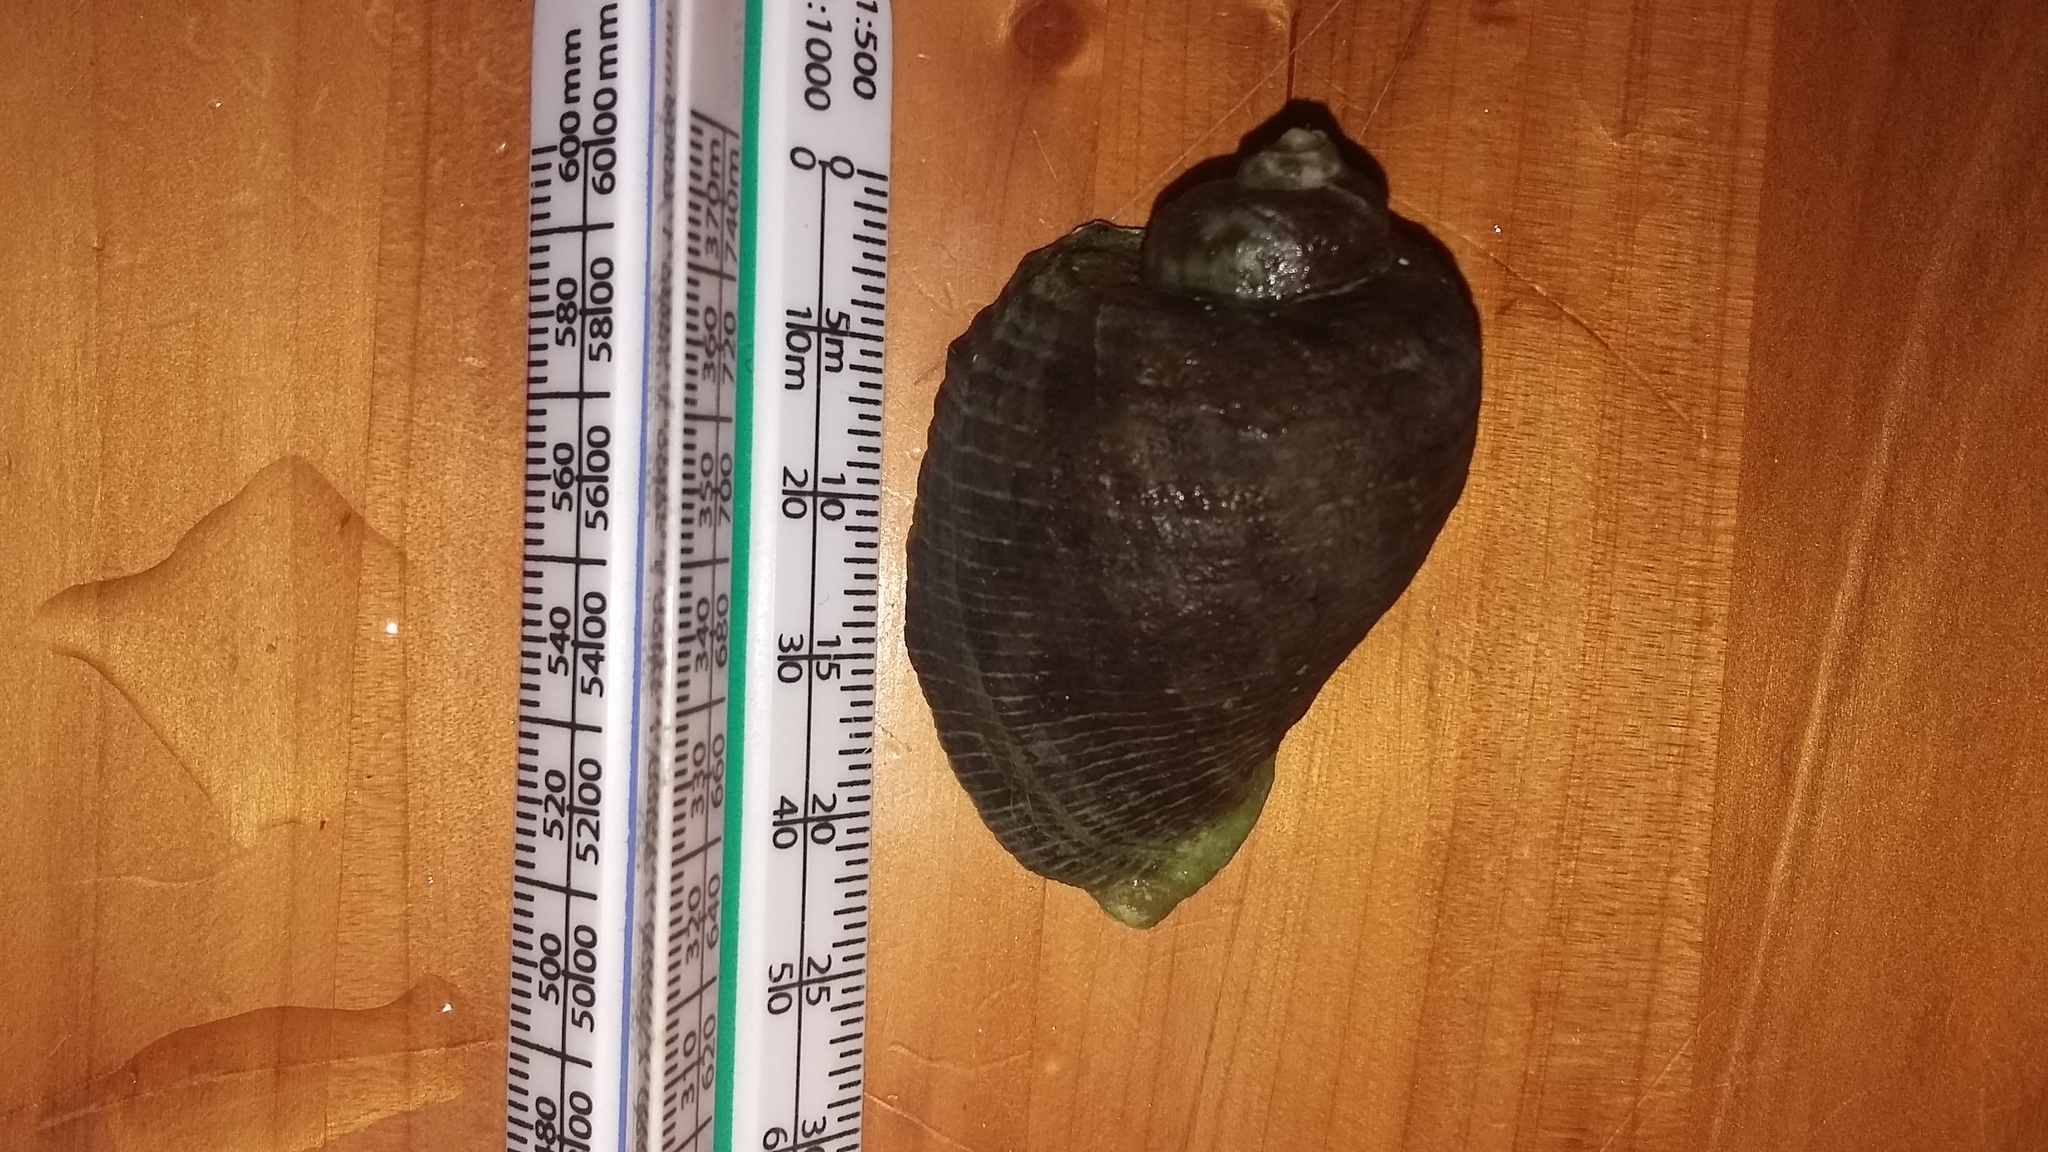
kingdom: Animalia
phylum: Mollusca
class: Gastropoda
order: Neogastropoda
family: Muricidae
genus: Haustrum
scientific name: Haustrum haustorium
